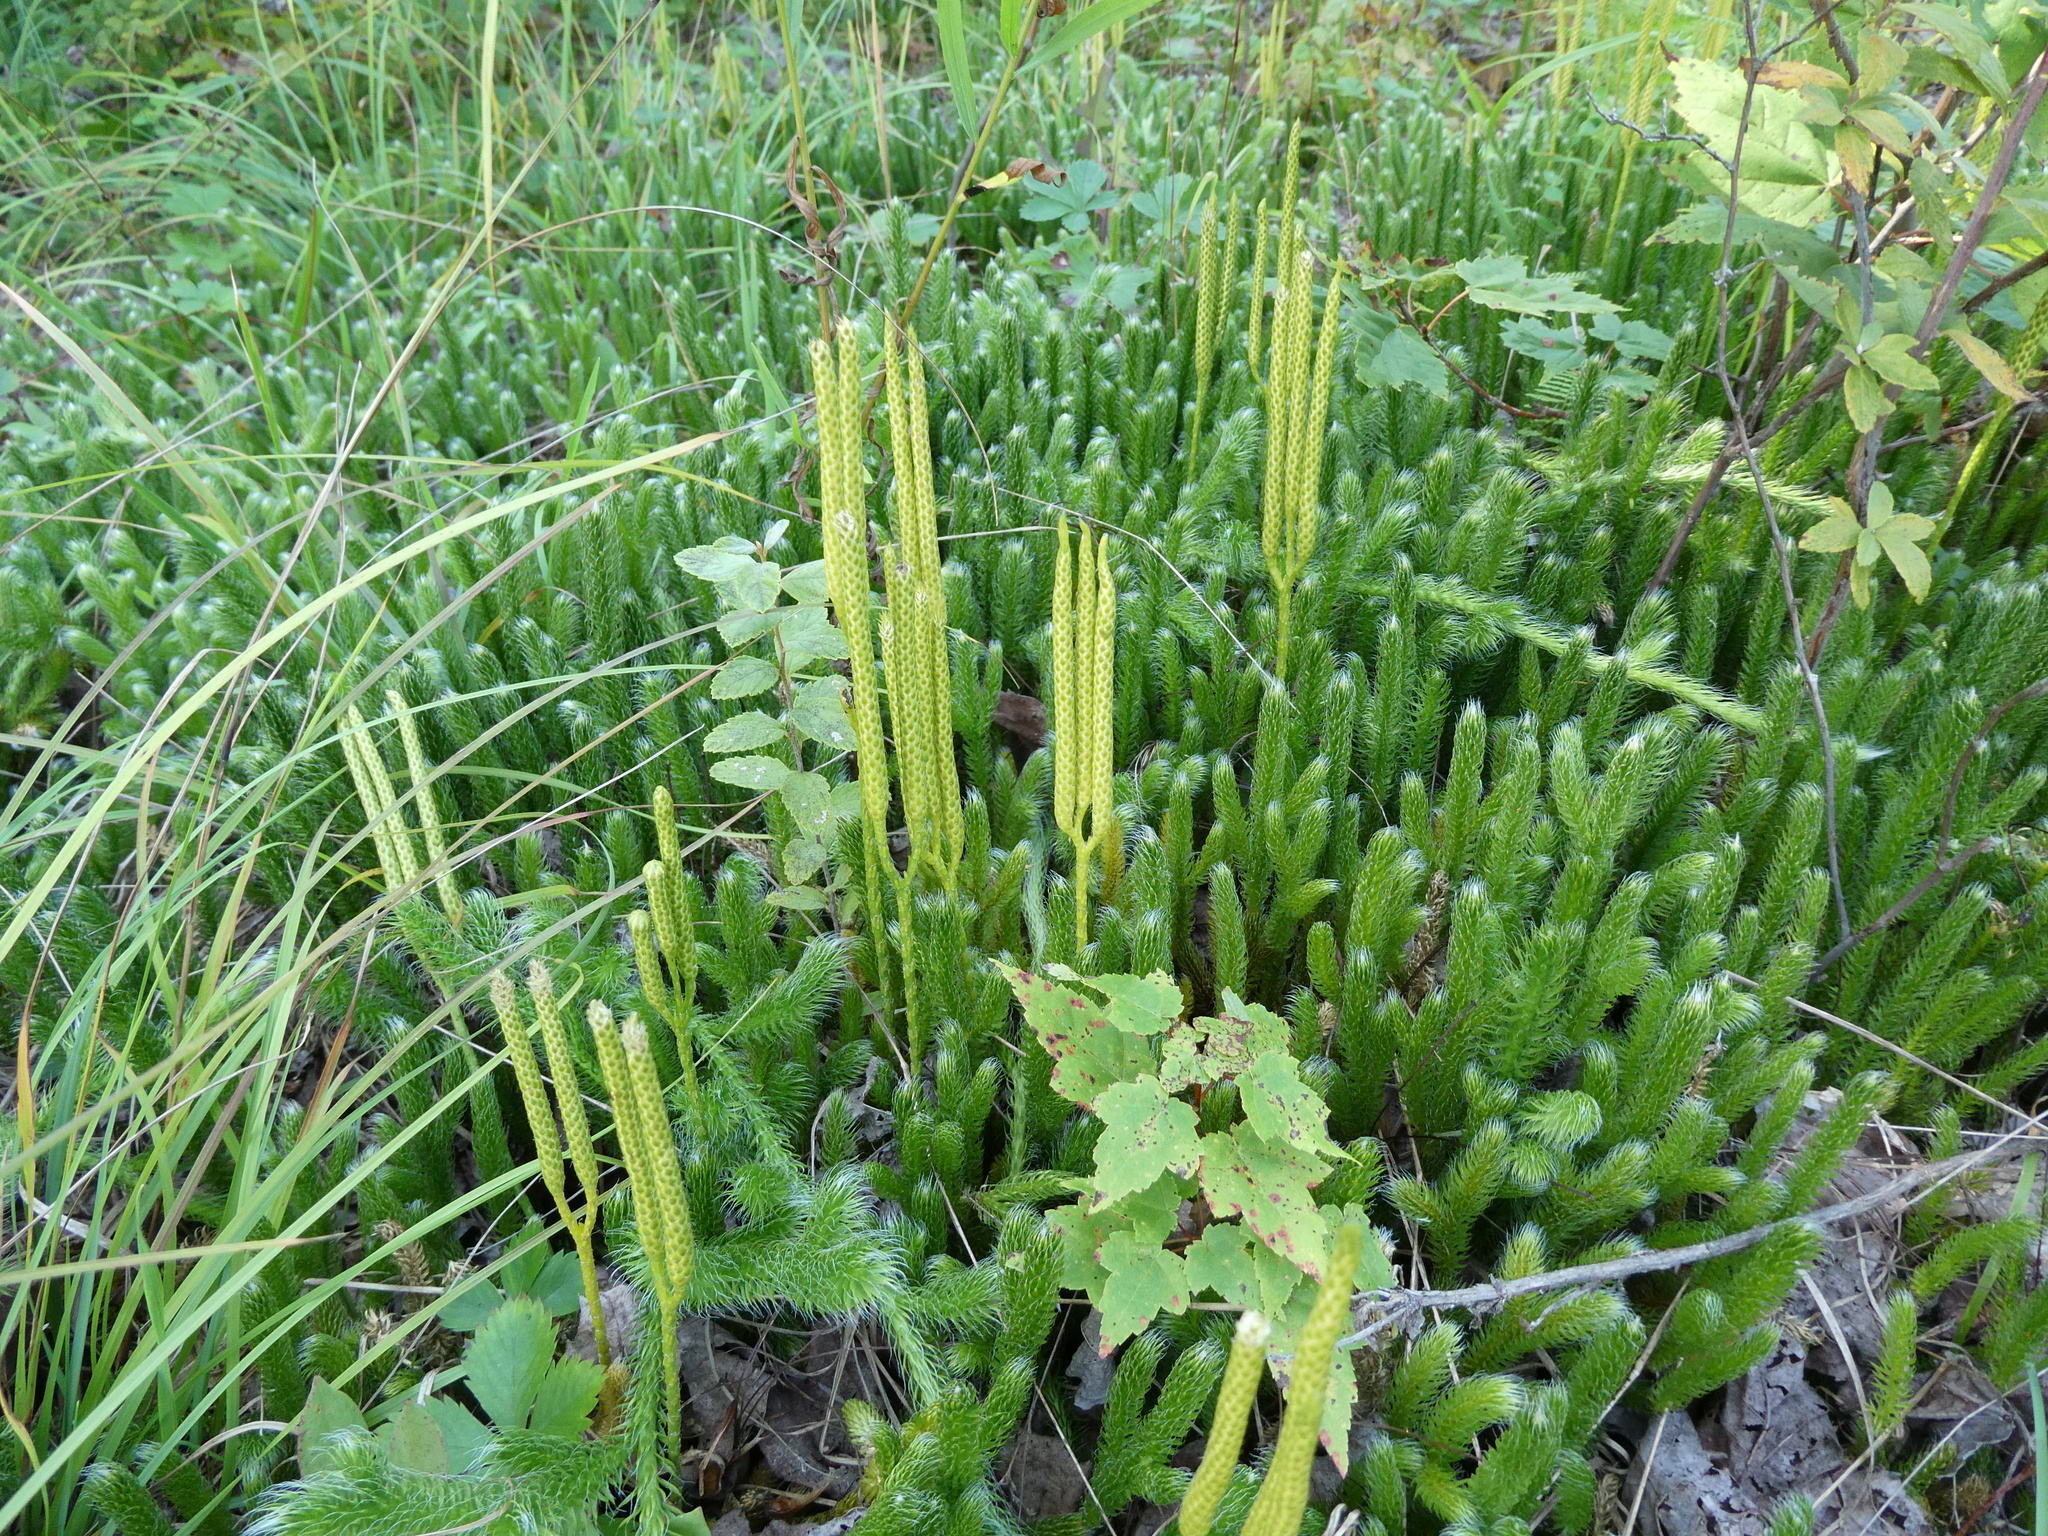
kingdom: Plantae
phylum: Tracheophyta
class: Lycopodiopsida
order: Lycopodiales
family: Lycopodiaceae
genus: Lycopodium
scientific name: Lycopodium clavatum
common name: Stag's-horn clubmoss
